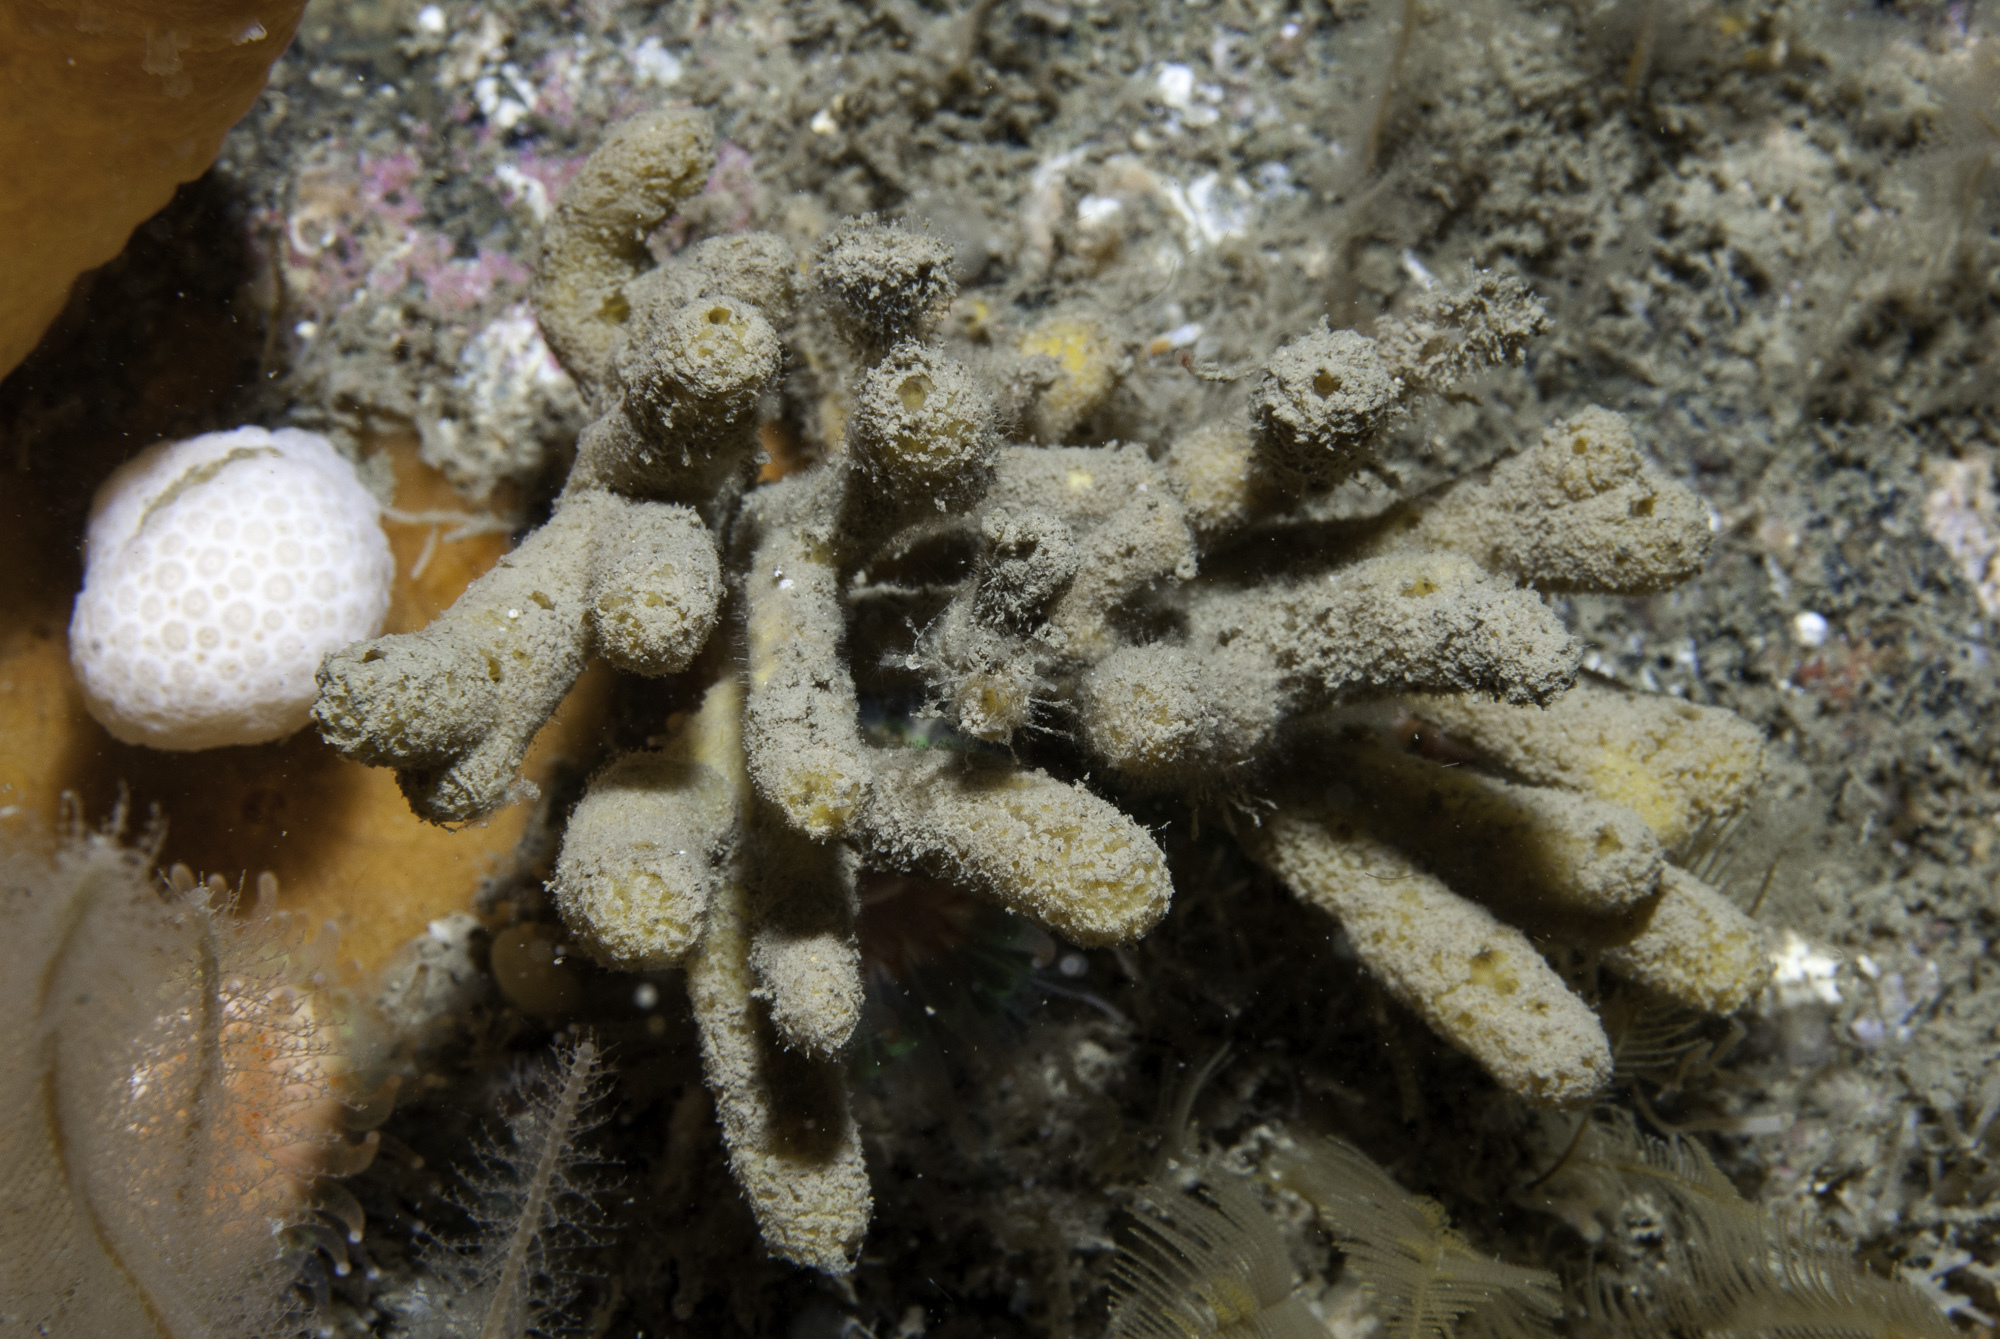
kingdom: Animalia
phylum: Porifera
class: Demospongiae
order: Axinellida
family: Stelligeridae
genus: Stelligera
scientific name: Stelligera stuposa
